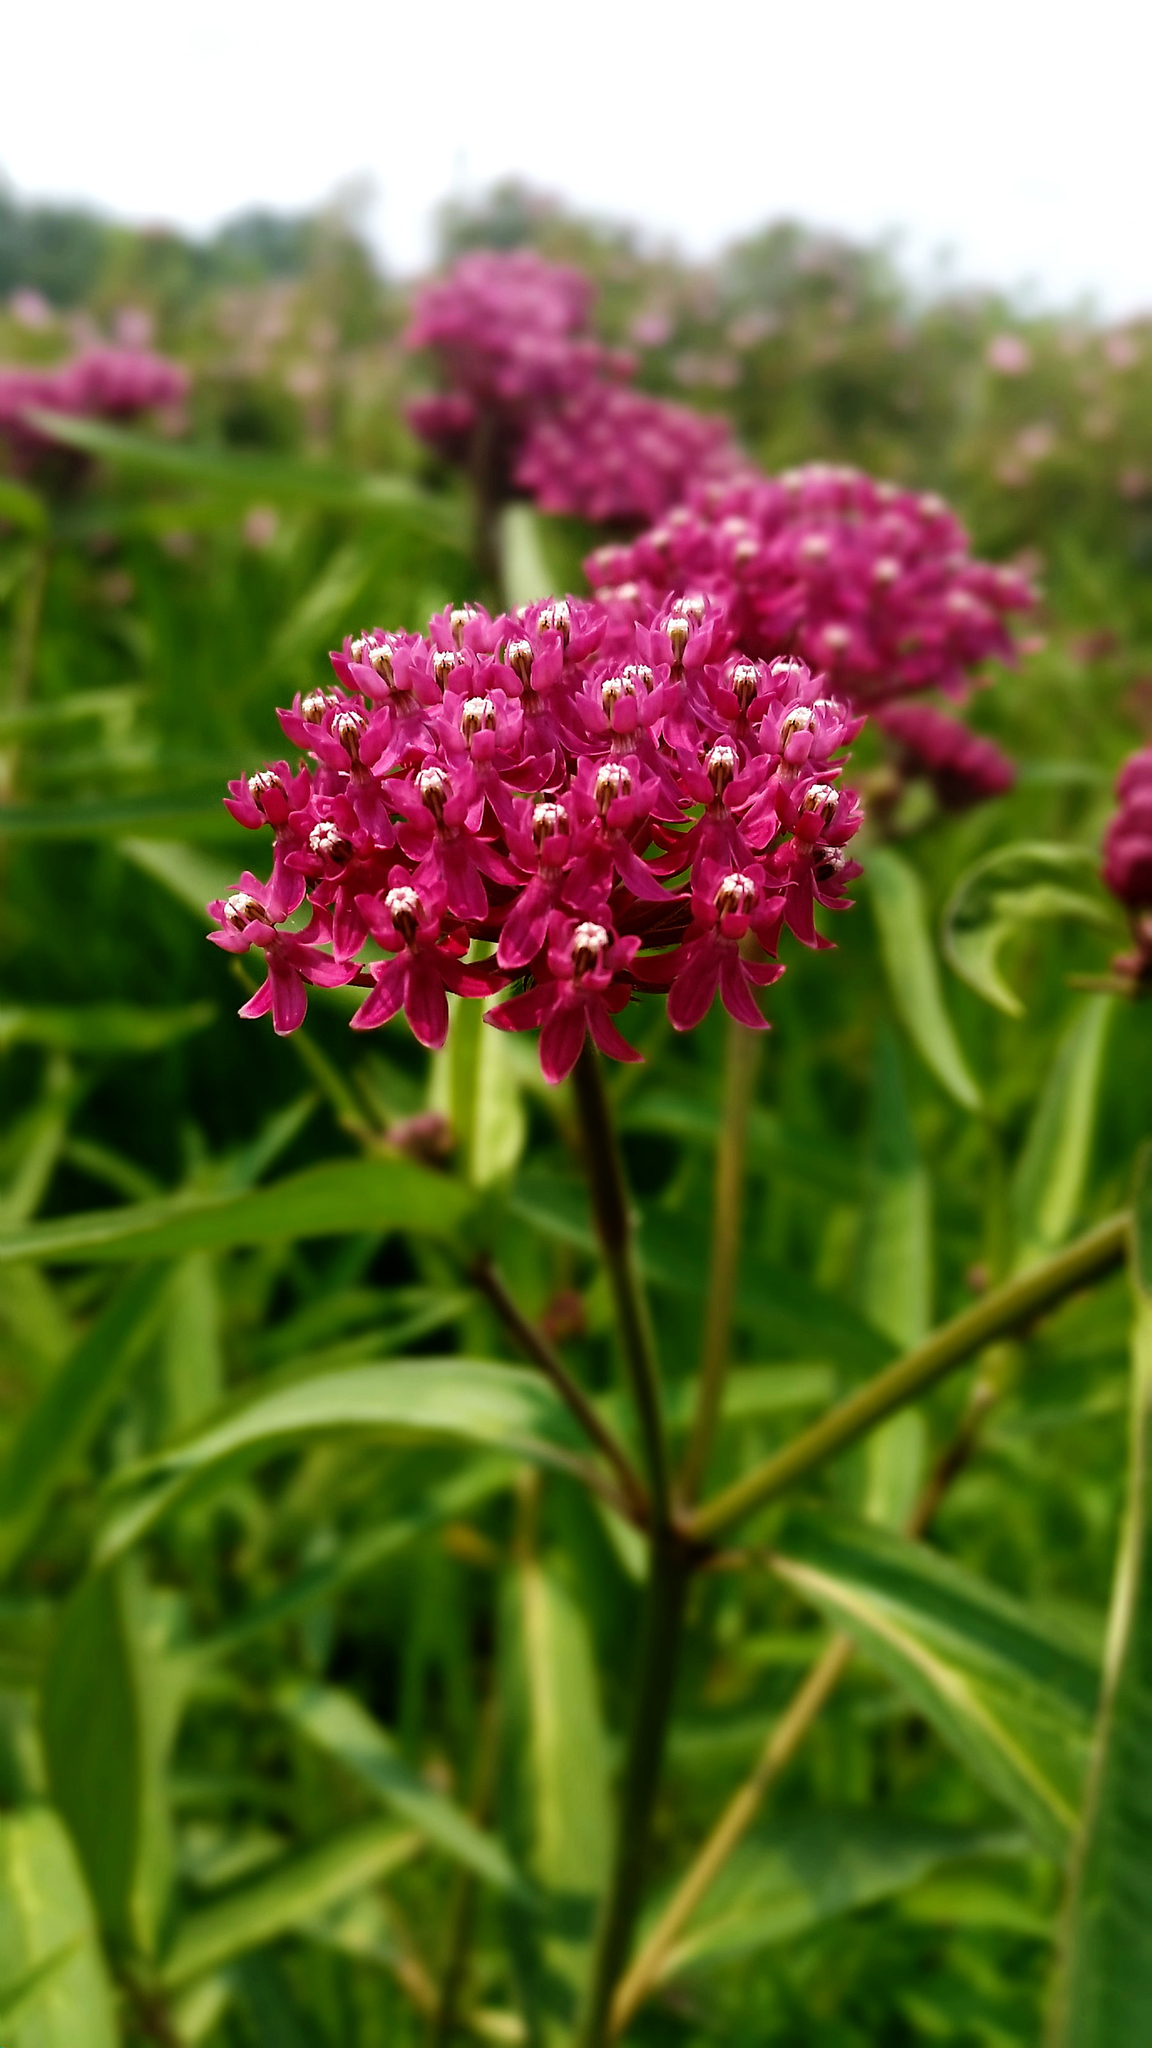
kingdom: Plantae
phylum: Tracheophyta
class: Magnoliopsida
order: Gentianales
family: Apocynaceae
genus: Asclepias
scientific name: Asclepias incarnata
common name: Swamp milkweed
